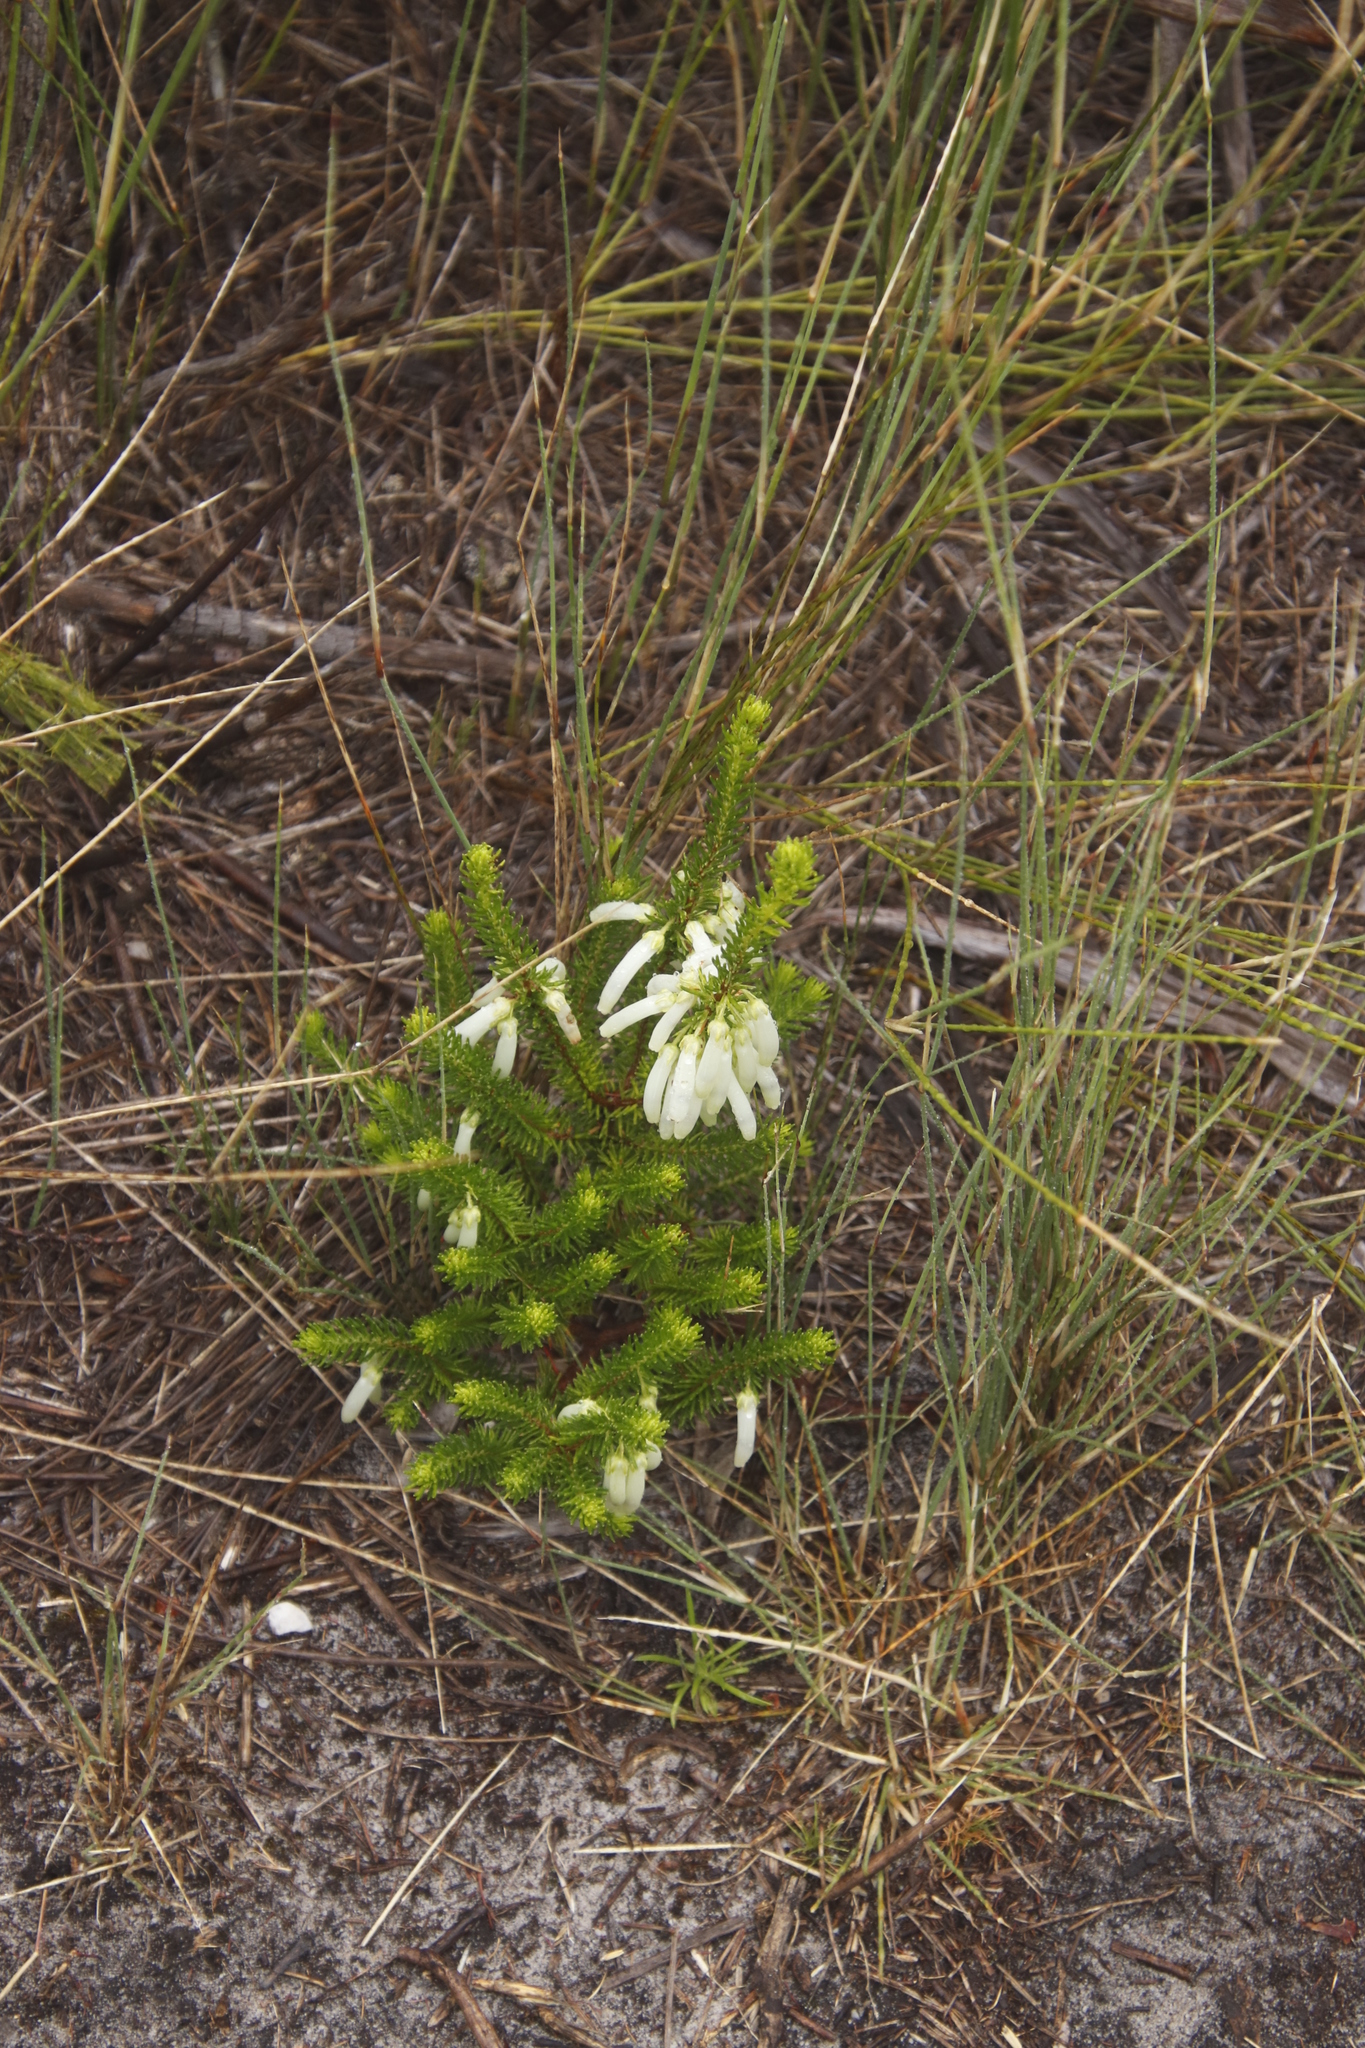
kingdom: Plantae
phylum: Tracheophyta
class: Magnoliopsida
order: Ericales
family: Ericaceae
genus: Erica
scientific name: Erica mammosa
